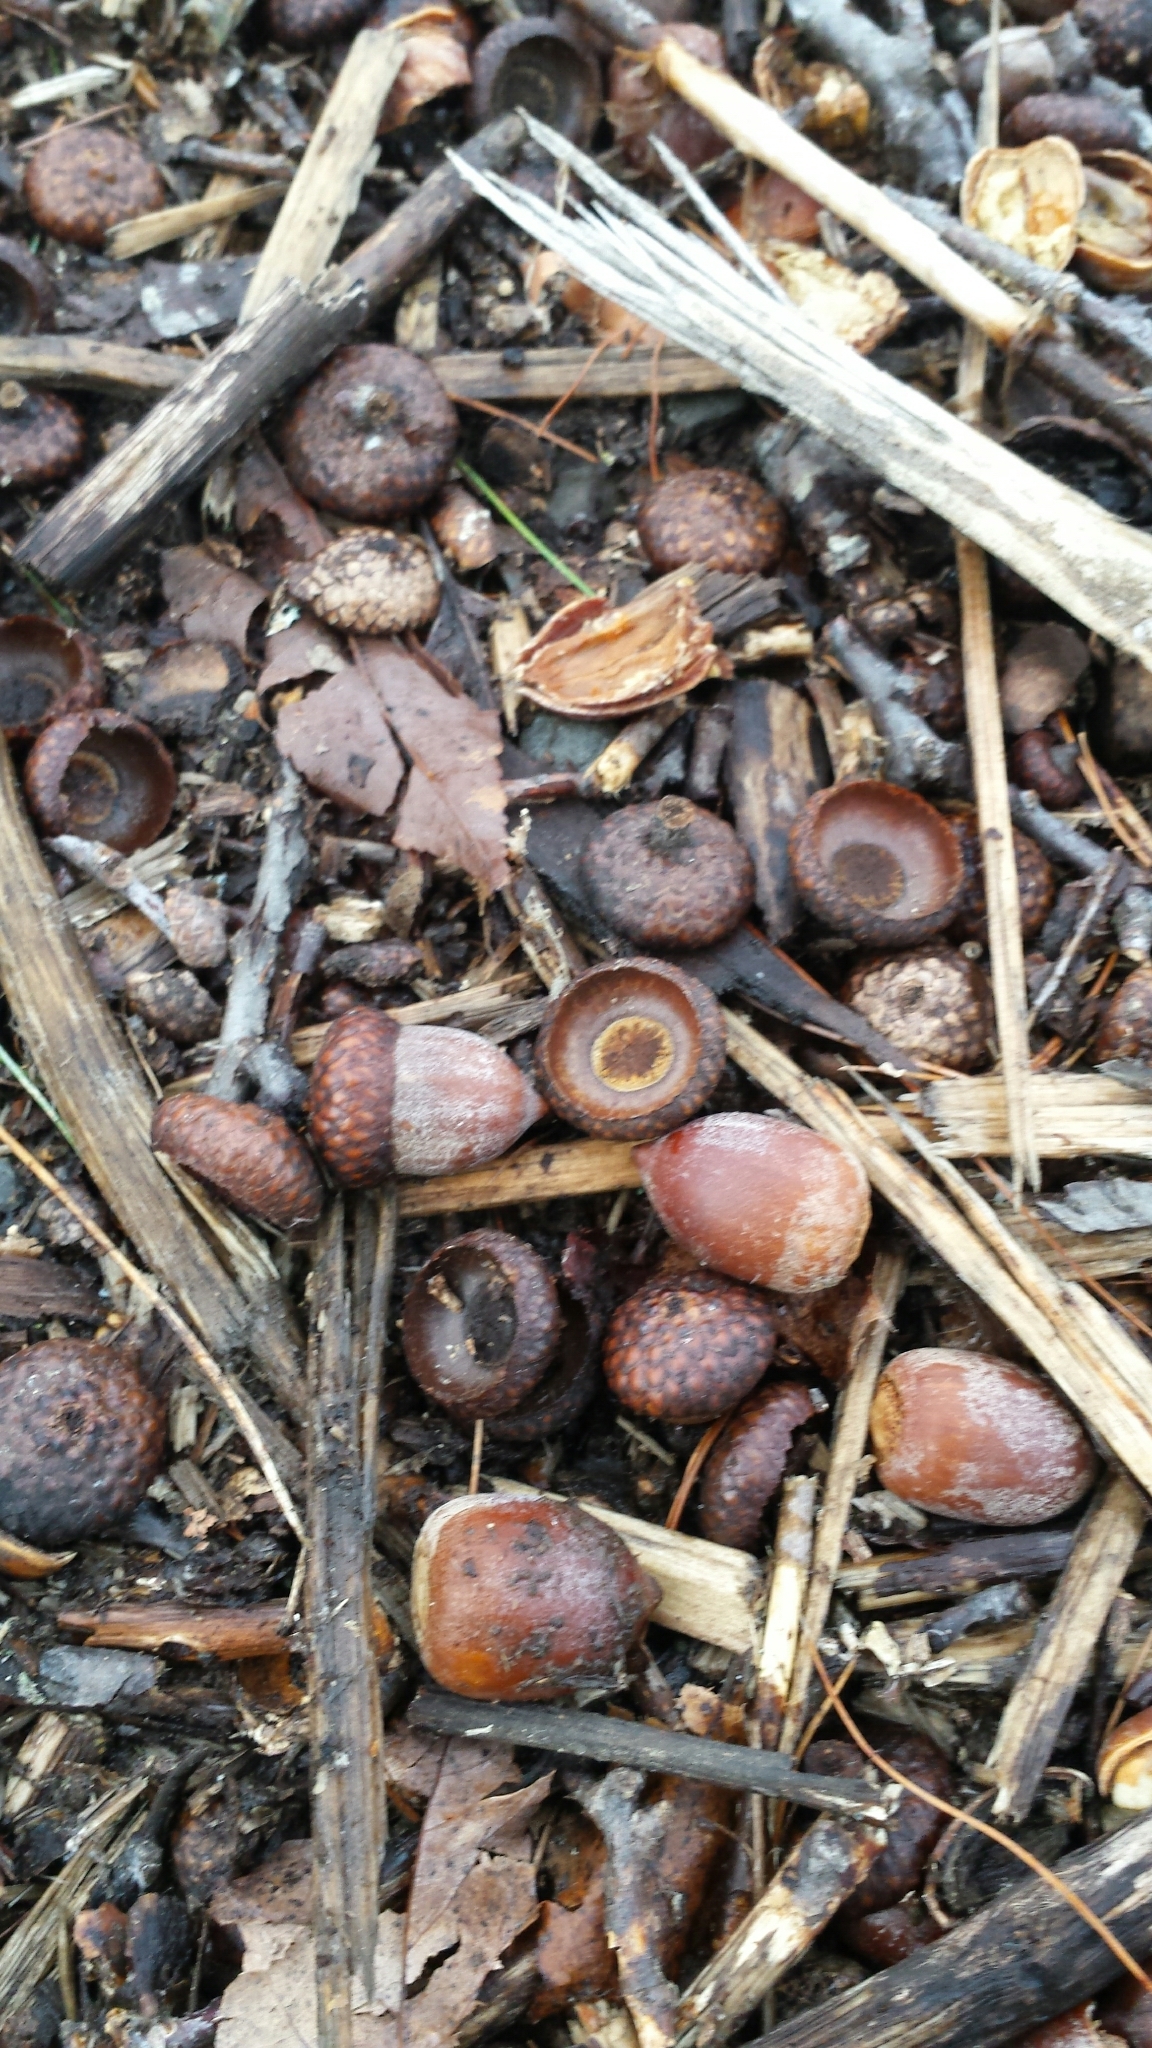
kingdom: Plantae
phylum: Tracheophyta
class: Magnoliopsida
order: Fagales
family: Fagaceae
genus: Quercus
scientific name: Quercus rubra
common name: Red oak
